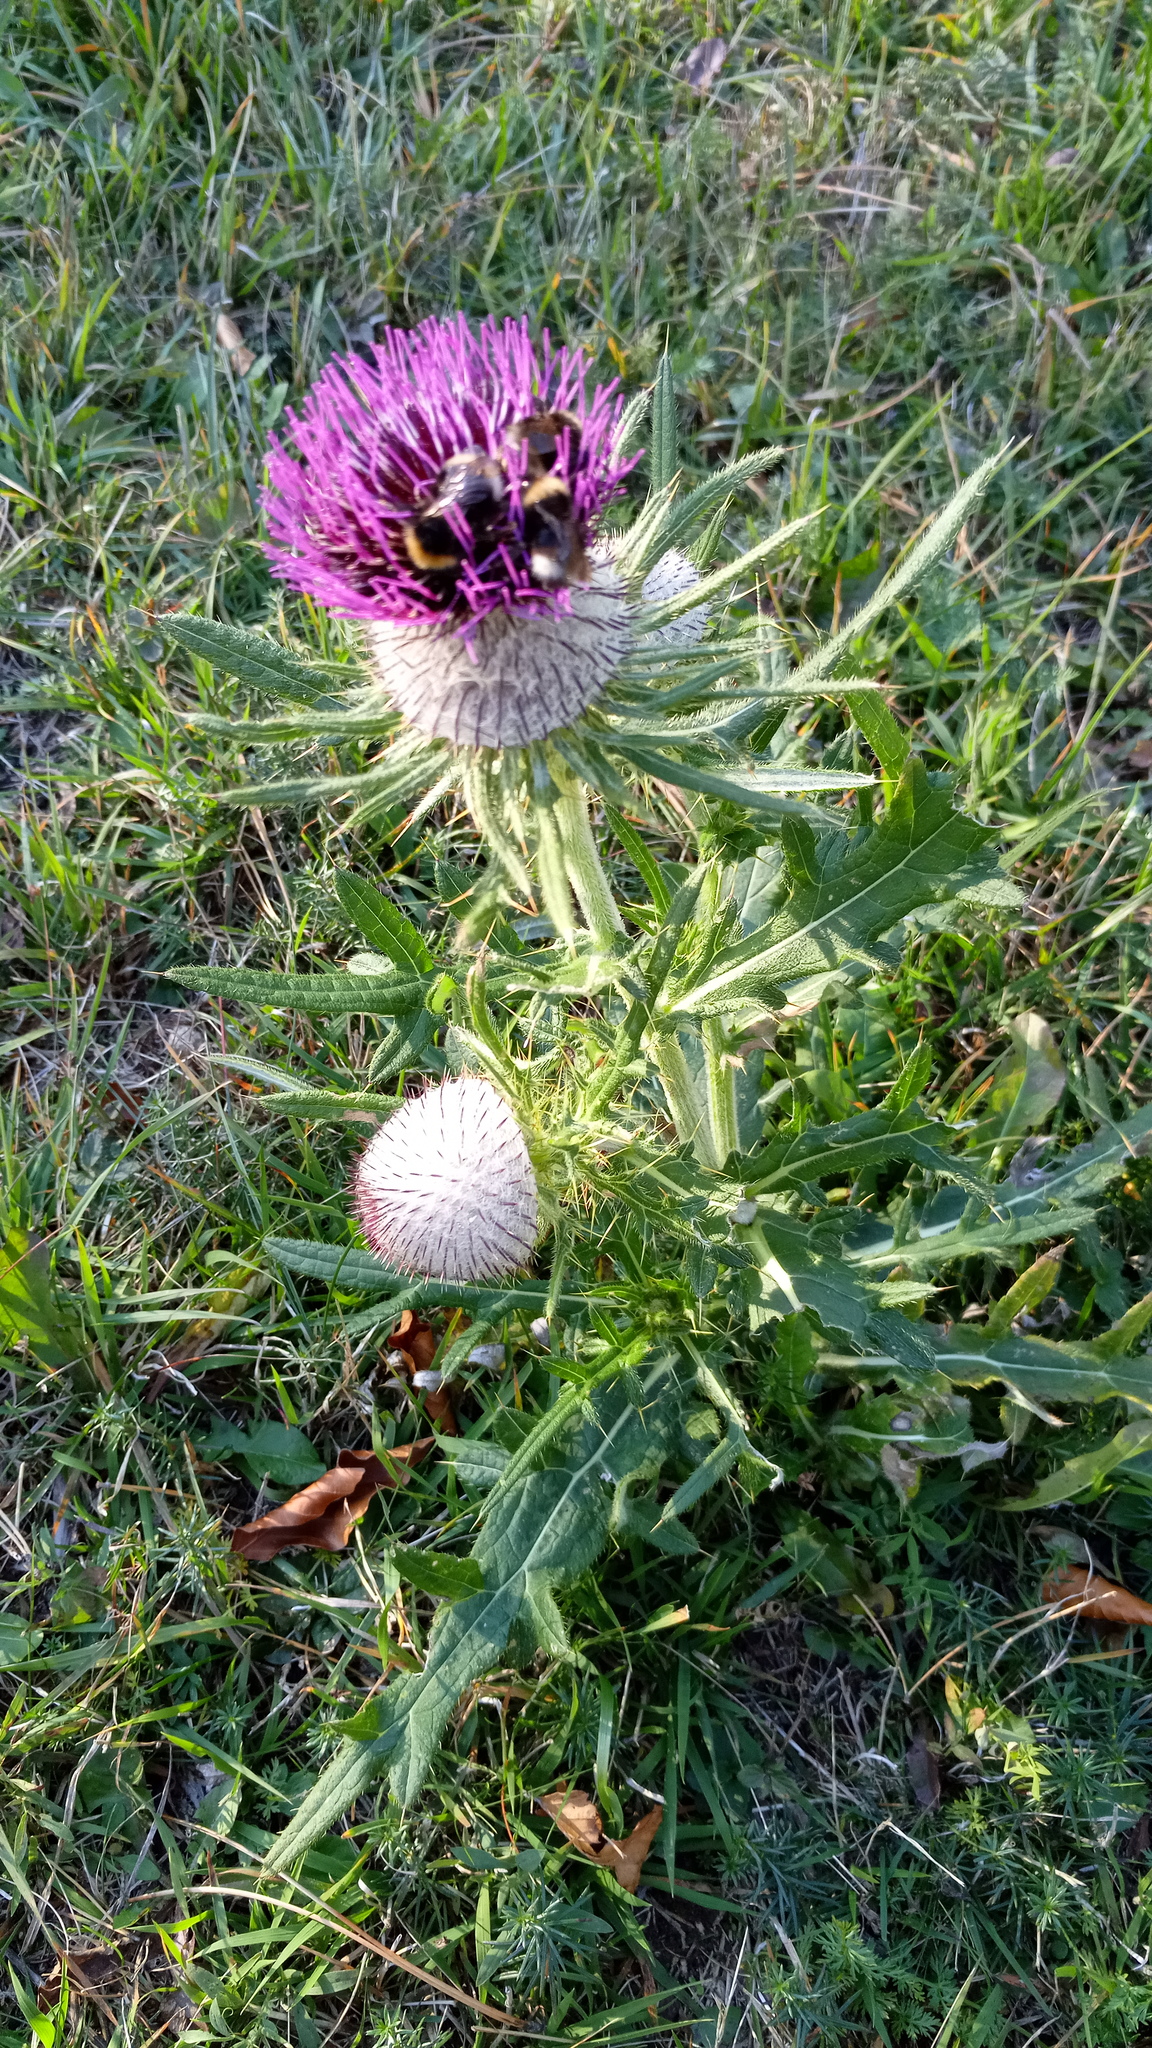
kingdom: Plantae
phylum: Tracheophyta
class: Magnoliopsida
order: Asterales
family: Asteraceae
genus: Lophiolepis
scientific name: Lophiolepis eriophora
